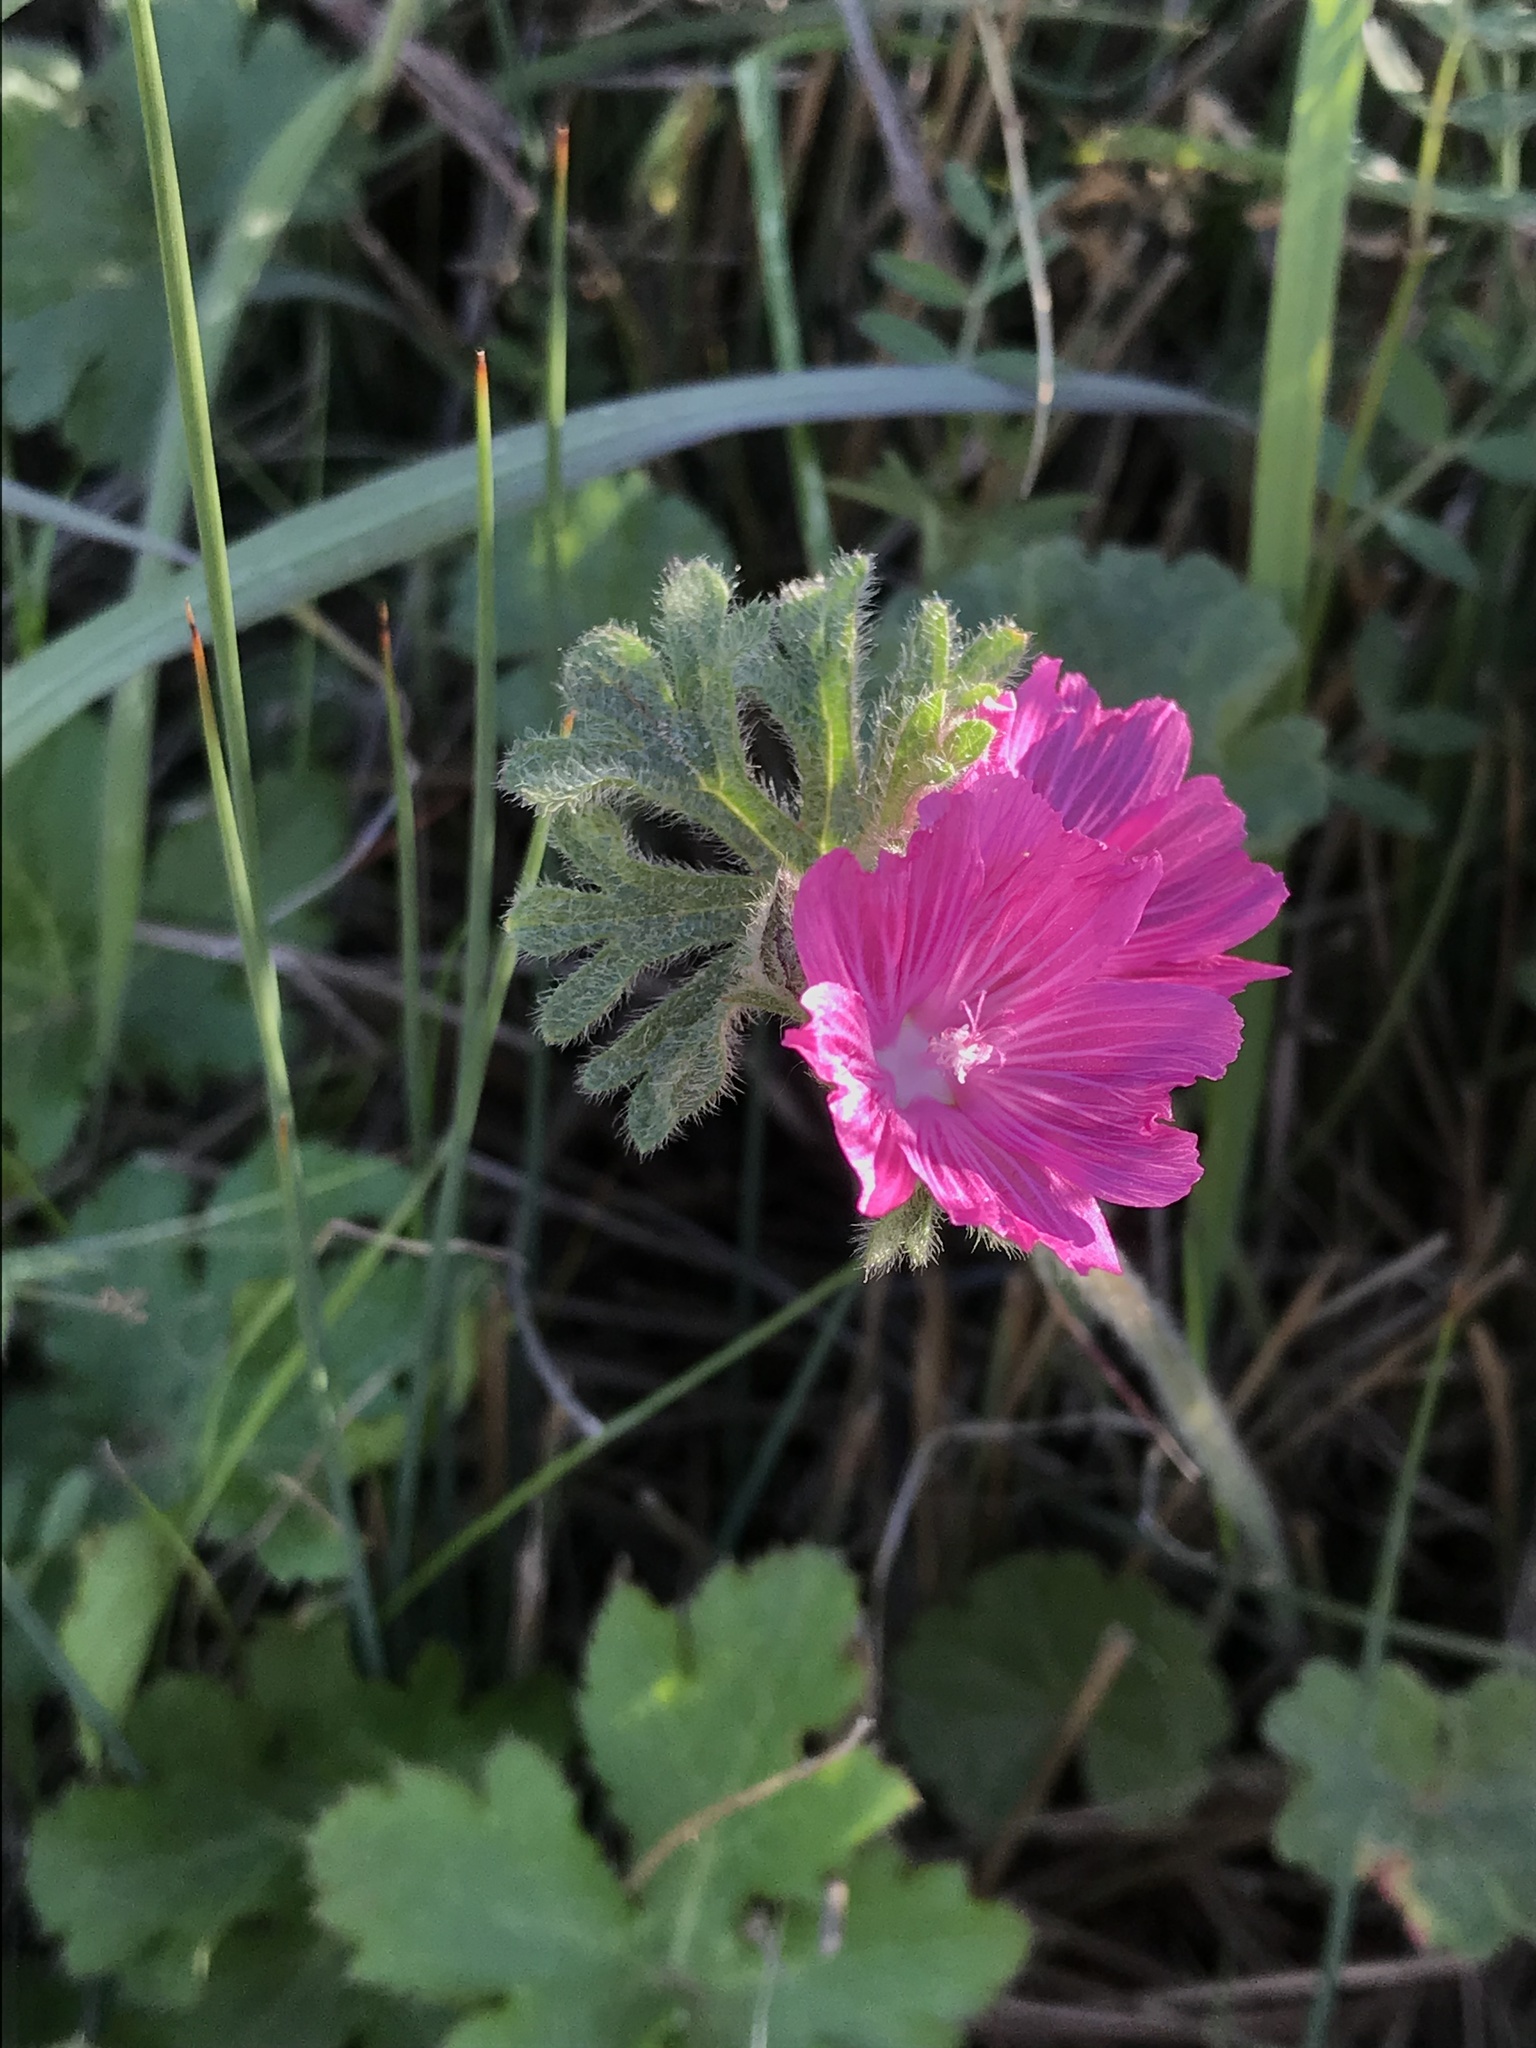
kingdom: Plantae
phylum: Tracheophyta
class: Magnoliopsida
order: Malvales
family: Malvaceae
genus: Sidalcea
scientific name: Sidalcea malviflora
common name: Greek mallow
